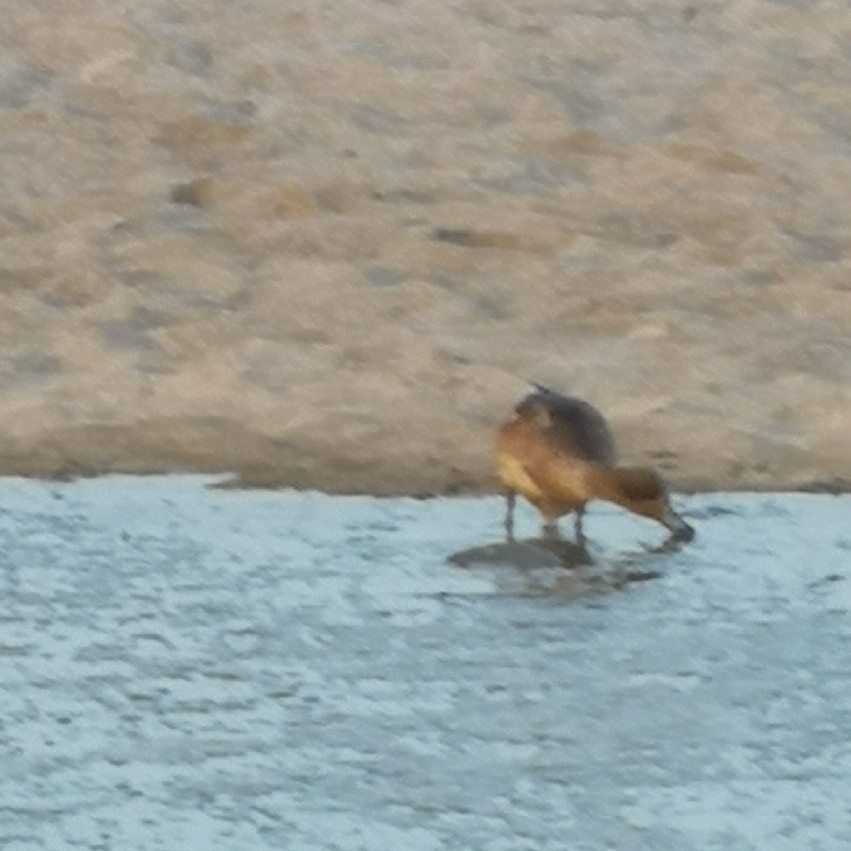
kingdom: Animalia
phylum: Chordata
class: Aves
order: Anseriformes
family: Anatidae
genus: Mareca
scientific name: Mareca penelope
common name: Eurasian wigeon
